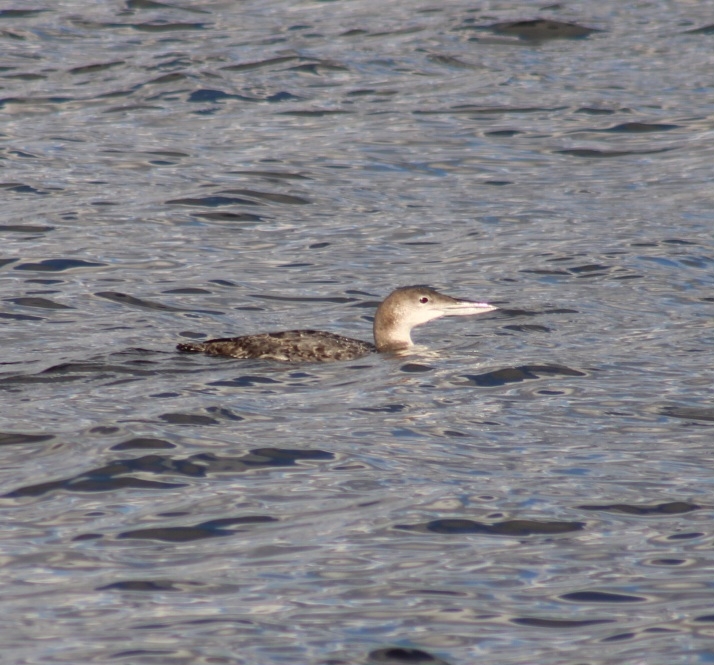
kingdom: Animalia
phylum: Chordata
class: Aves
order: Gaviiformes
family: Gaviidae
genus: Gavia
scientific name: Gavia immer
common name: Common loon
